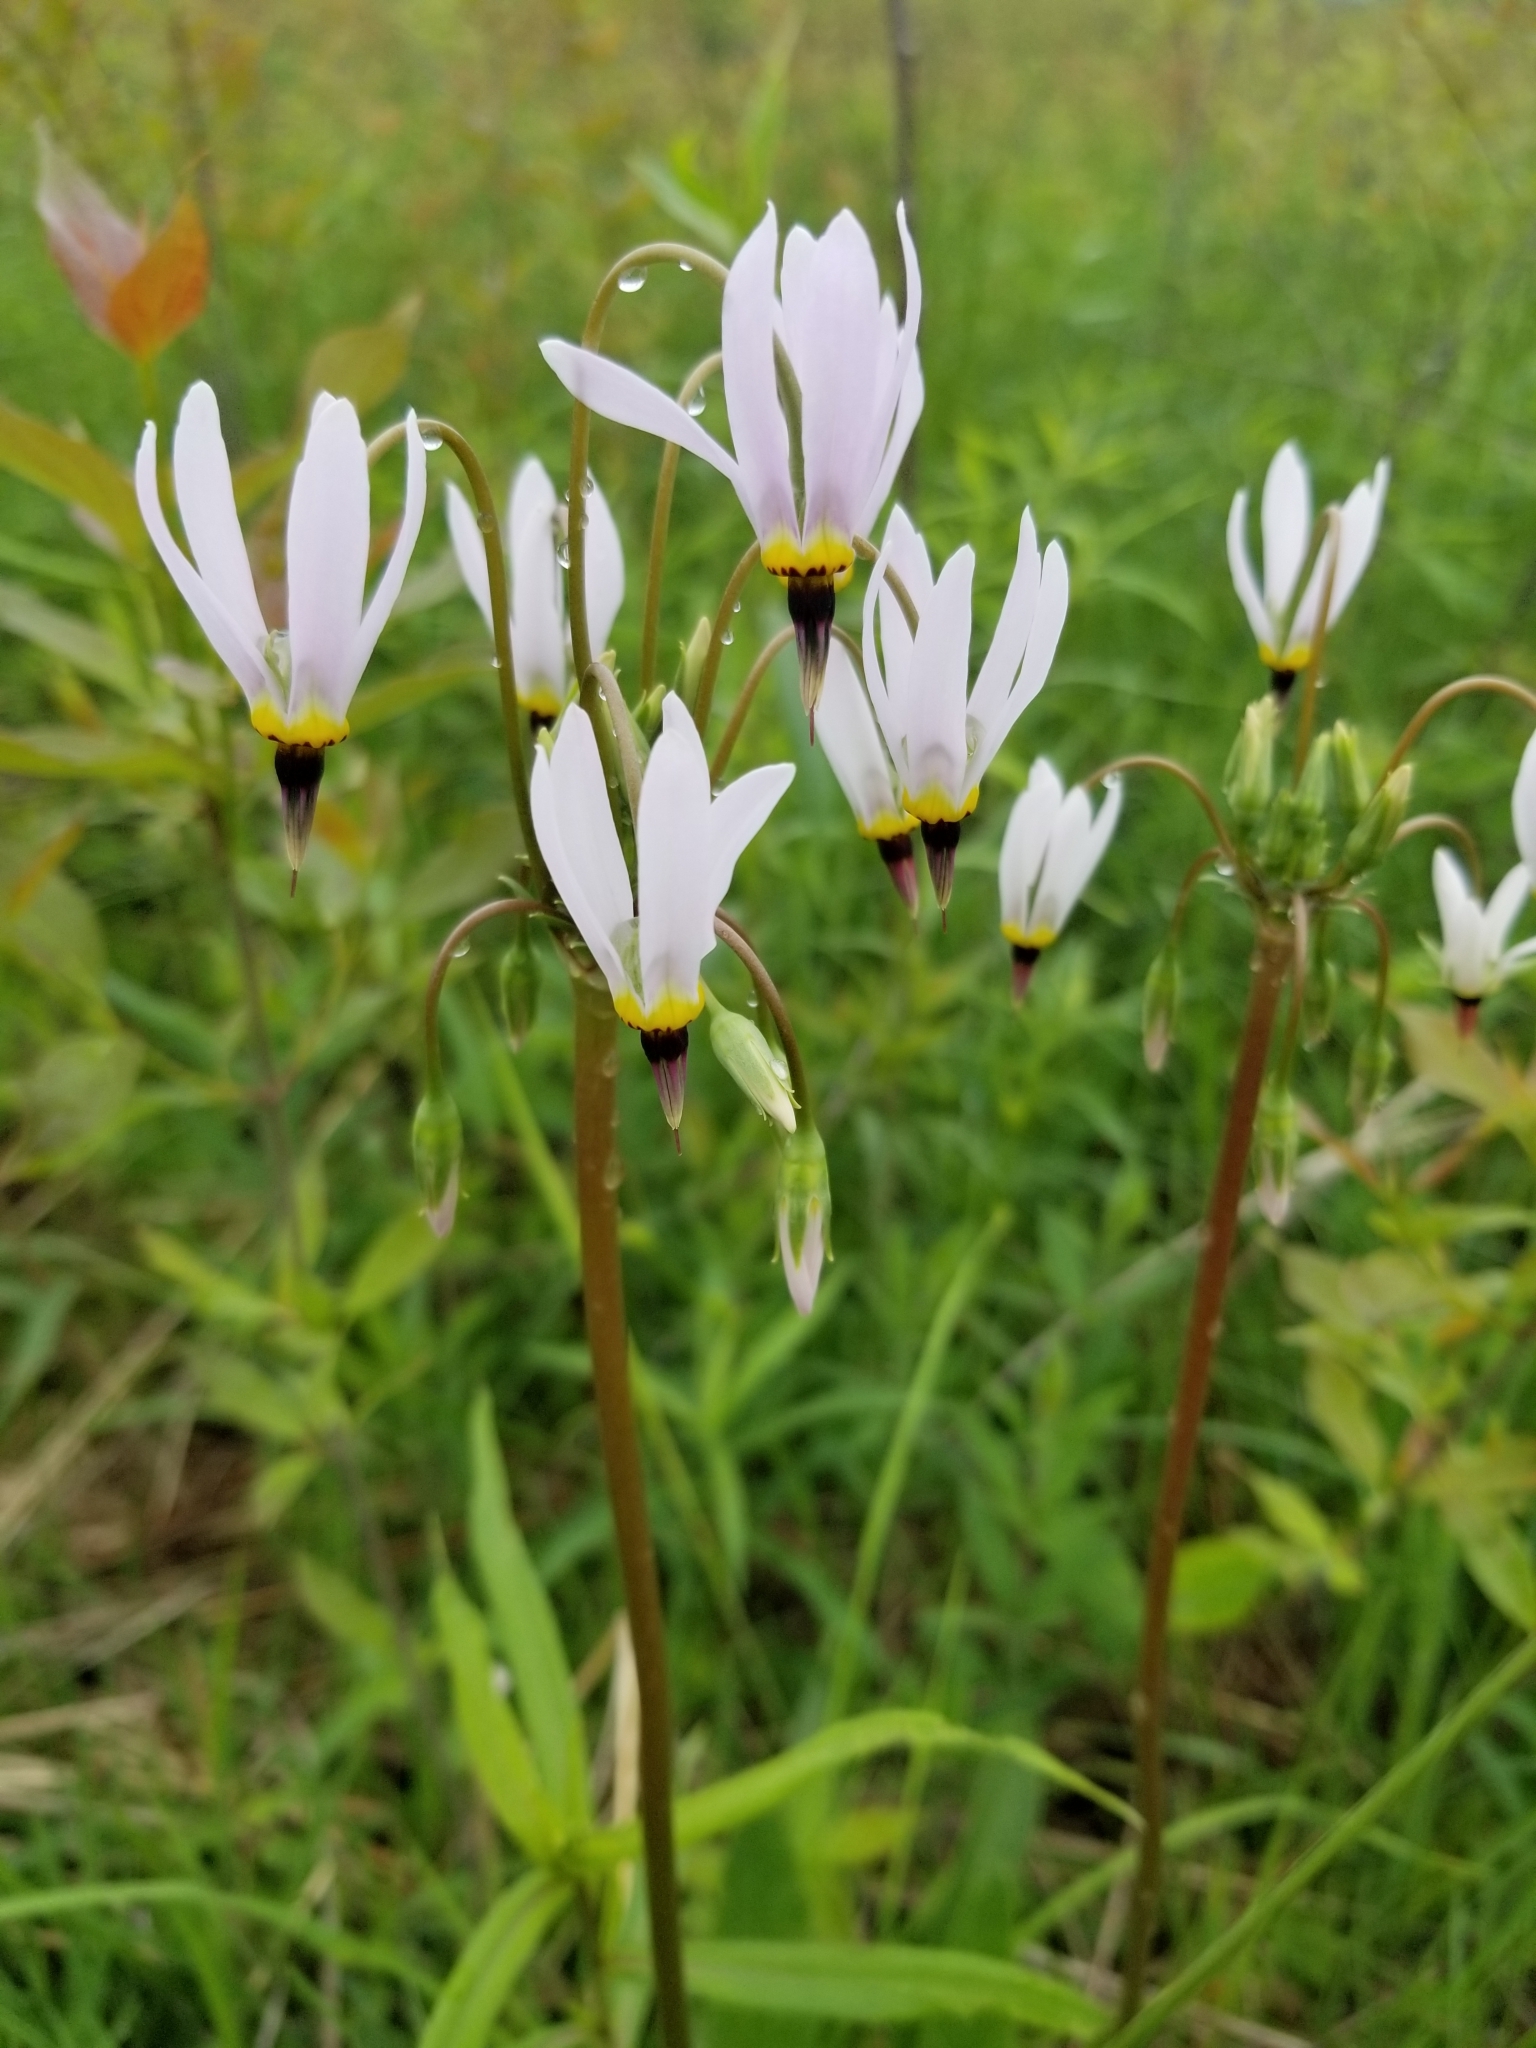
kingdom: Plantae
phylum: Tracheophyta
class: Magnoliopsida
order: Ericales
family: Primulaceae
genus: Dodecatheon
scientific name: Dodecatheon meadia
